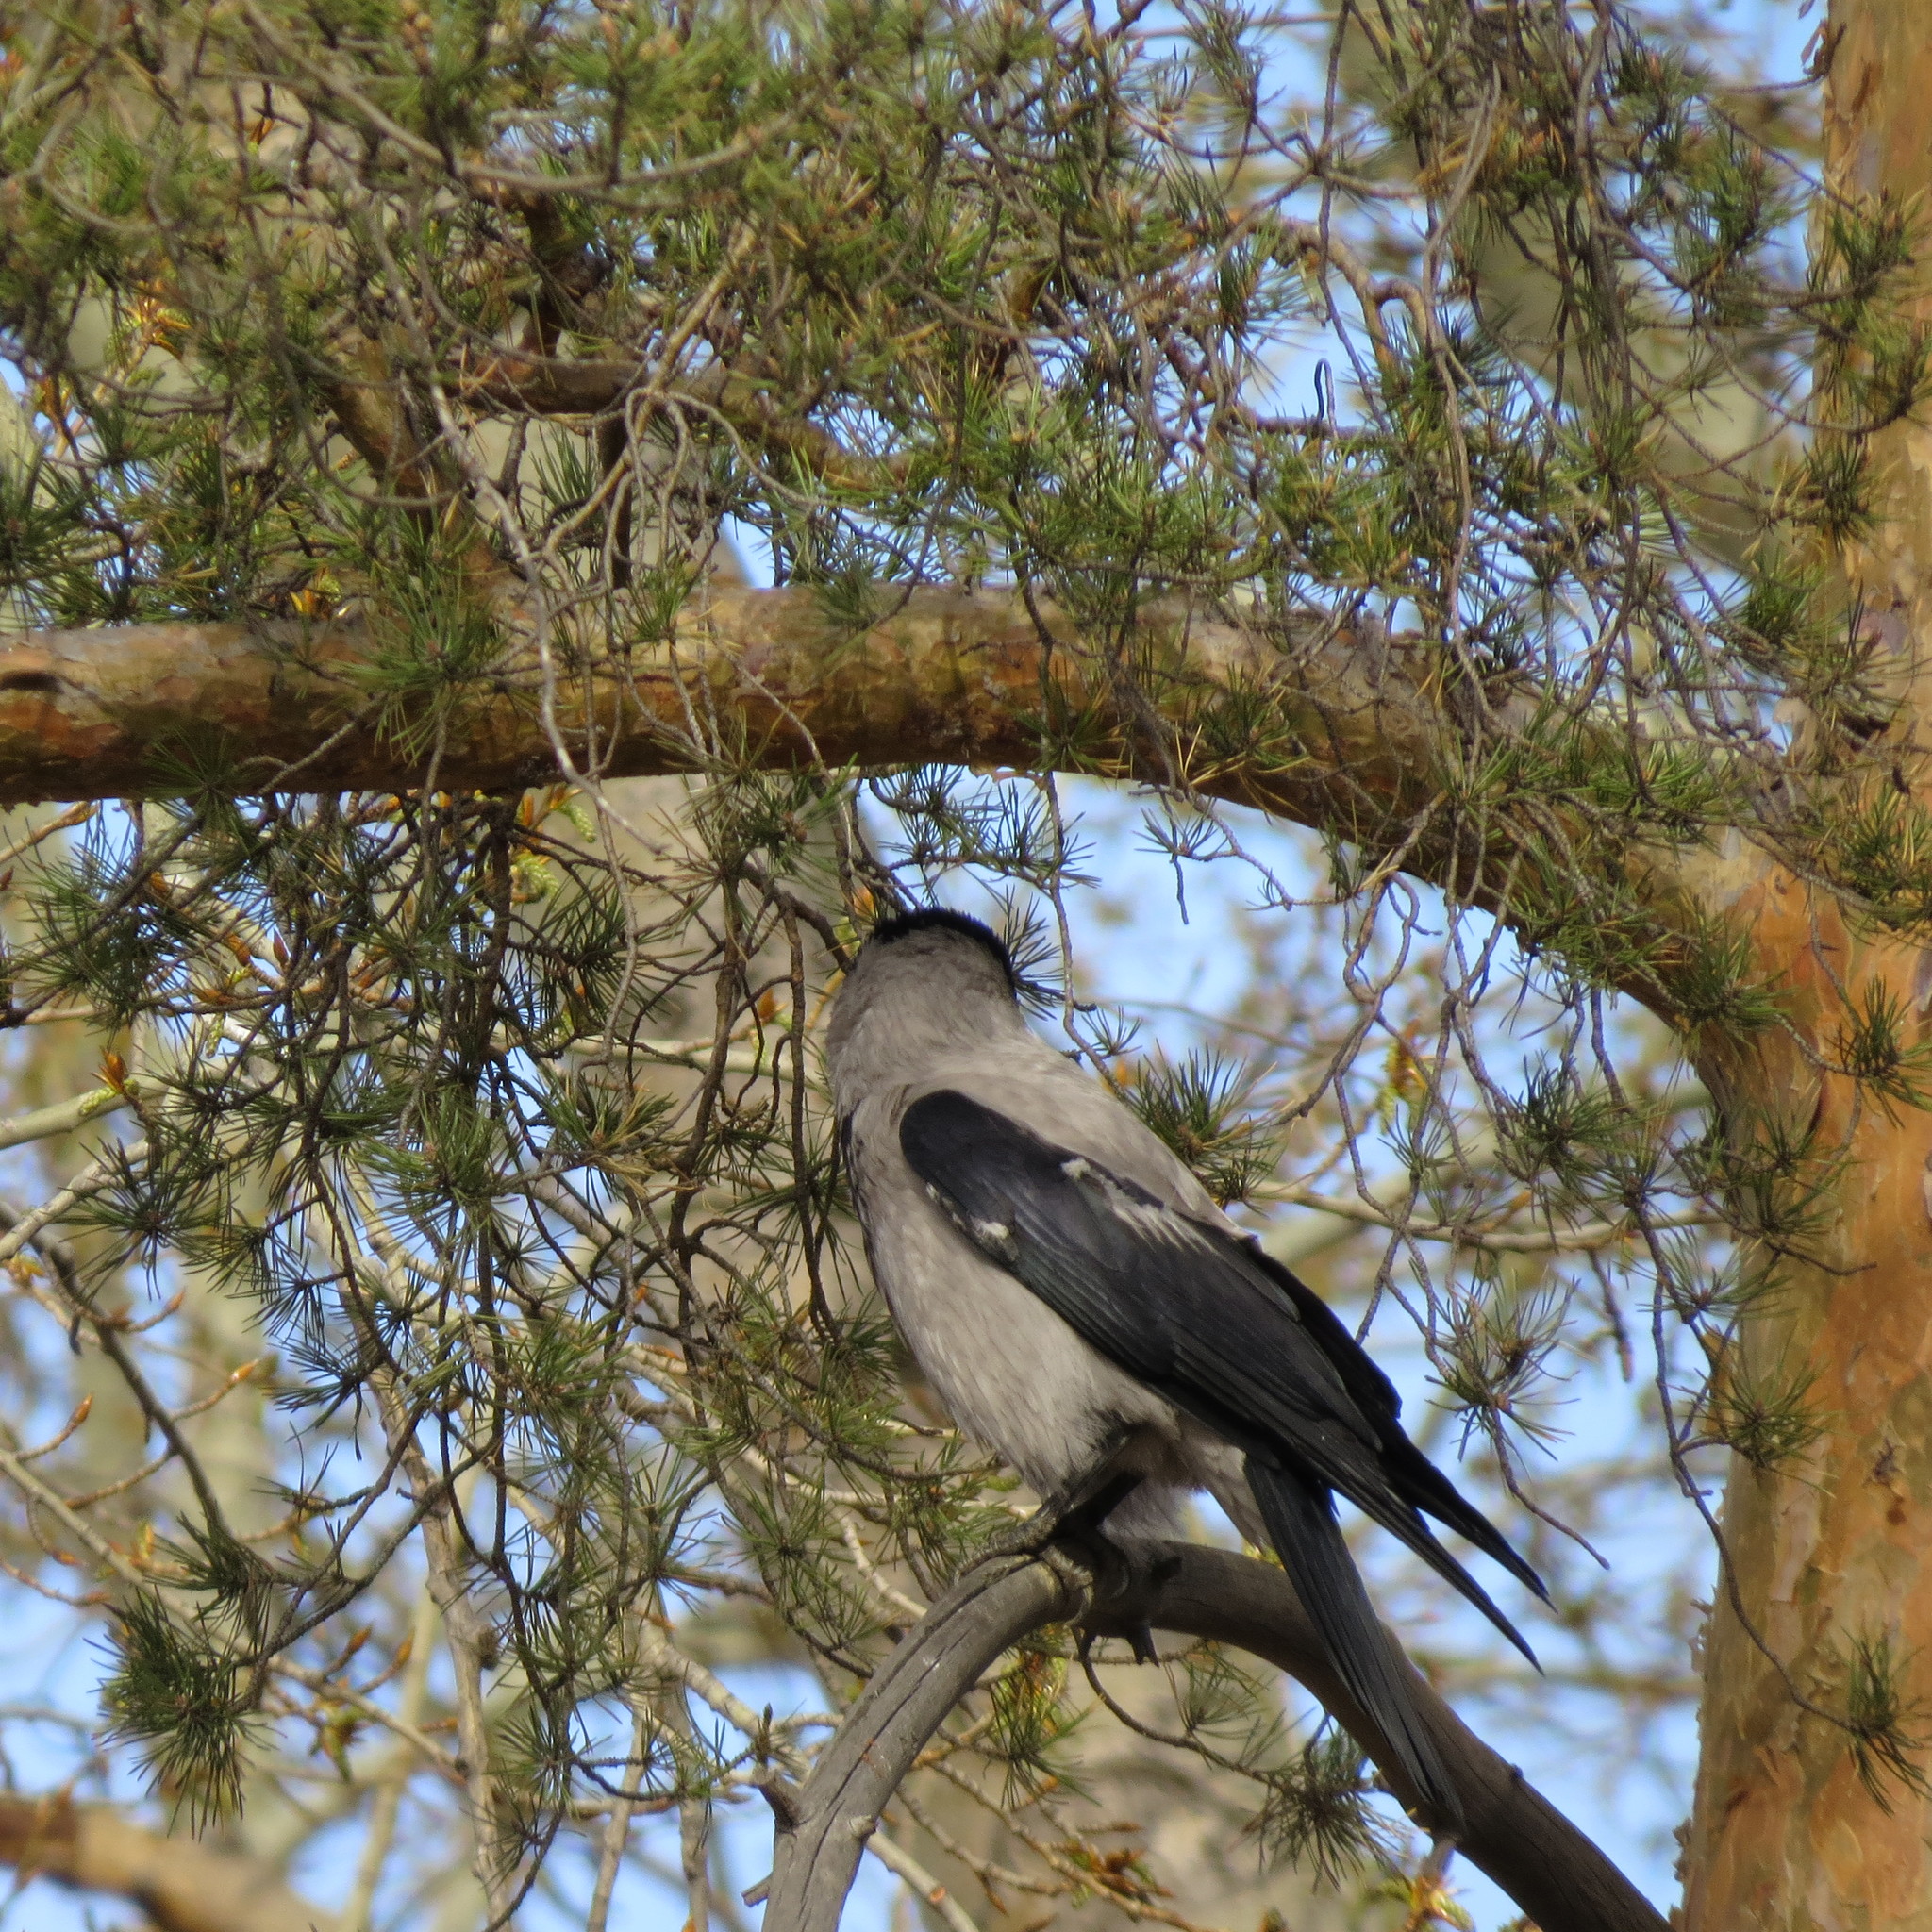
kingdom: Animalia
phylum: Chordata
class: Aves
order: Passeriformes
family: Corvidae
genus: Corvus
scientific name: Corvus cornix
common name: Hooded crow
